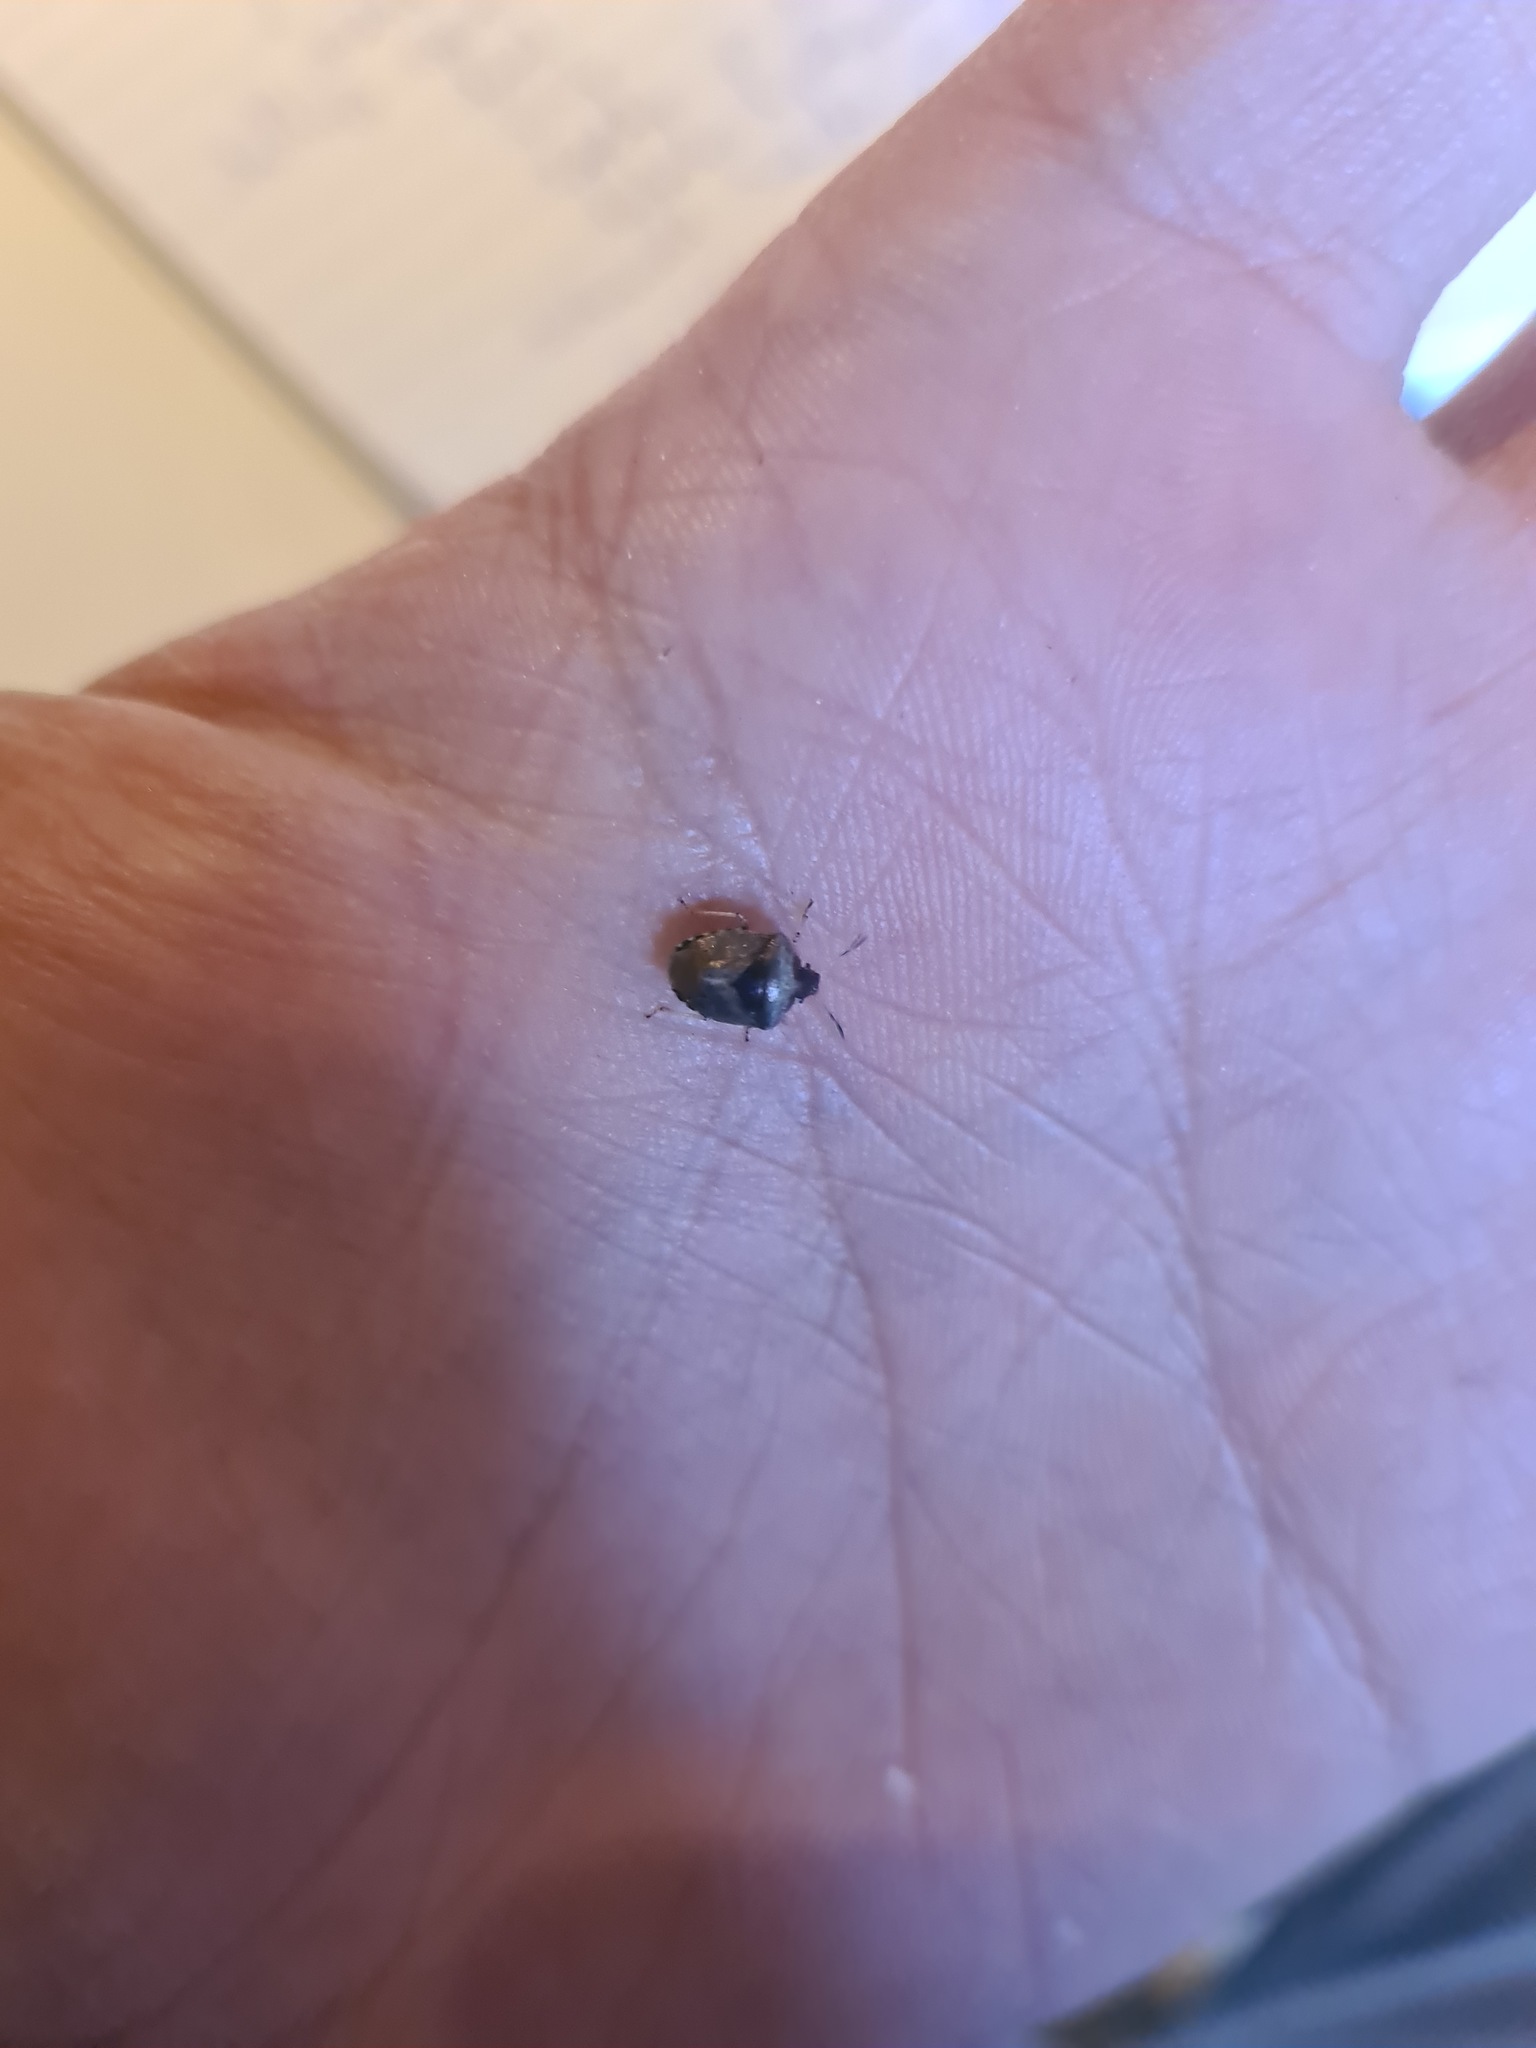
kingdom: Animalia
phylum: Arthropoda
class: Insecta
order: Hemiptera
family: Pentatomidae
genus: Eysarcoris
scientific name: Eysarcoris venustissimus
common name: Woundwort shieldbug
